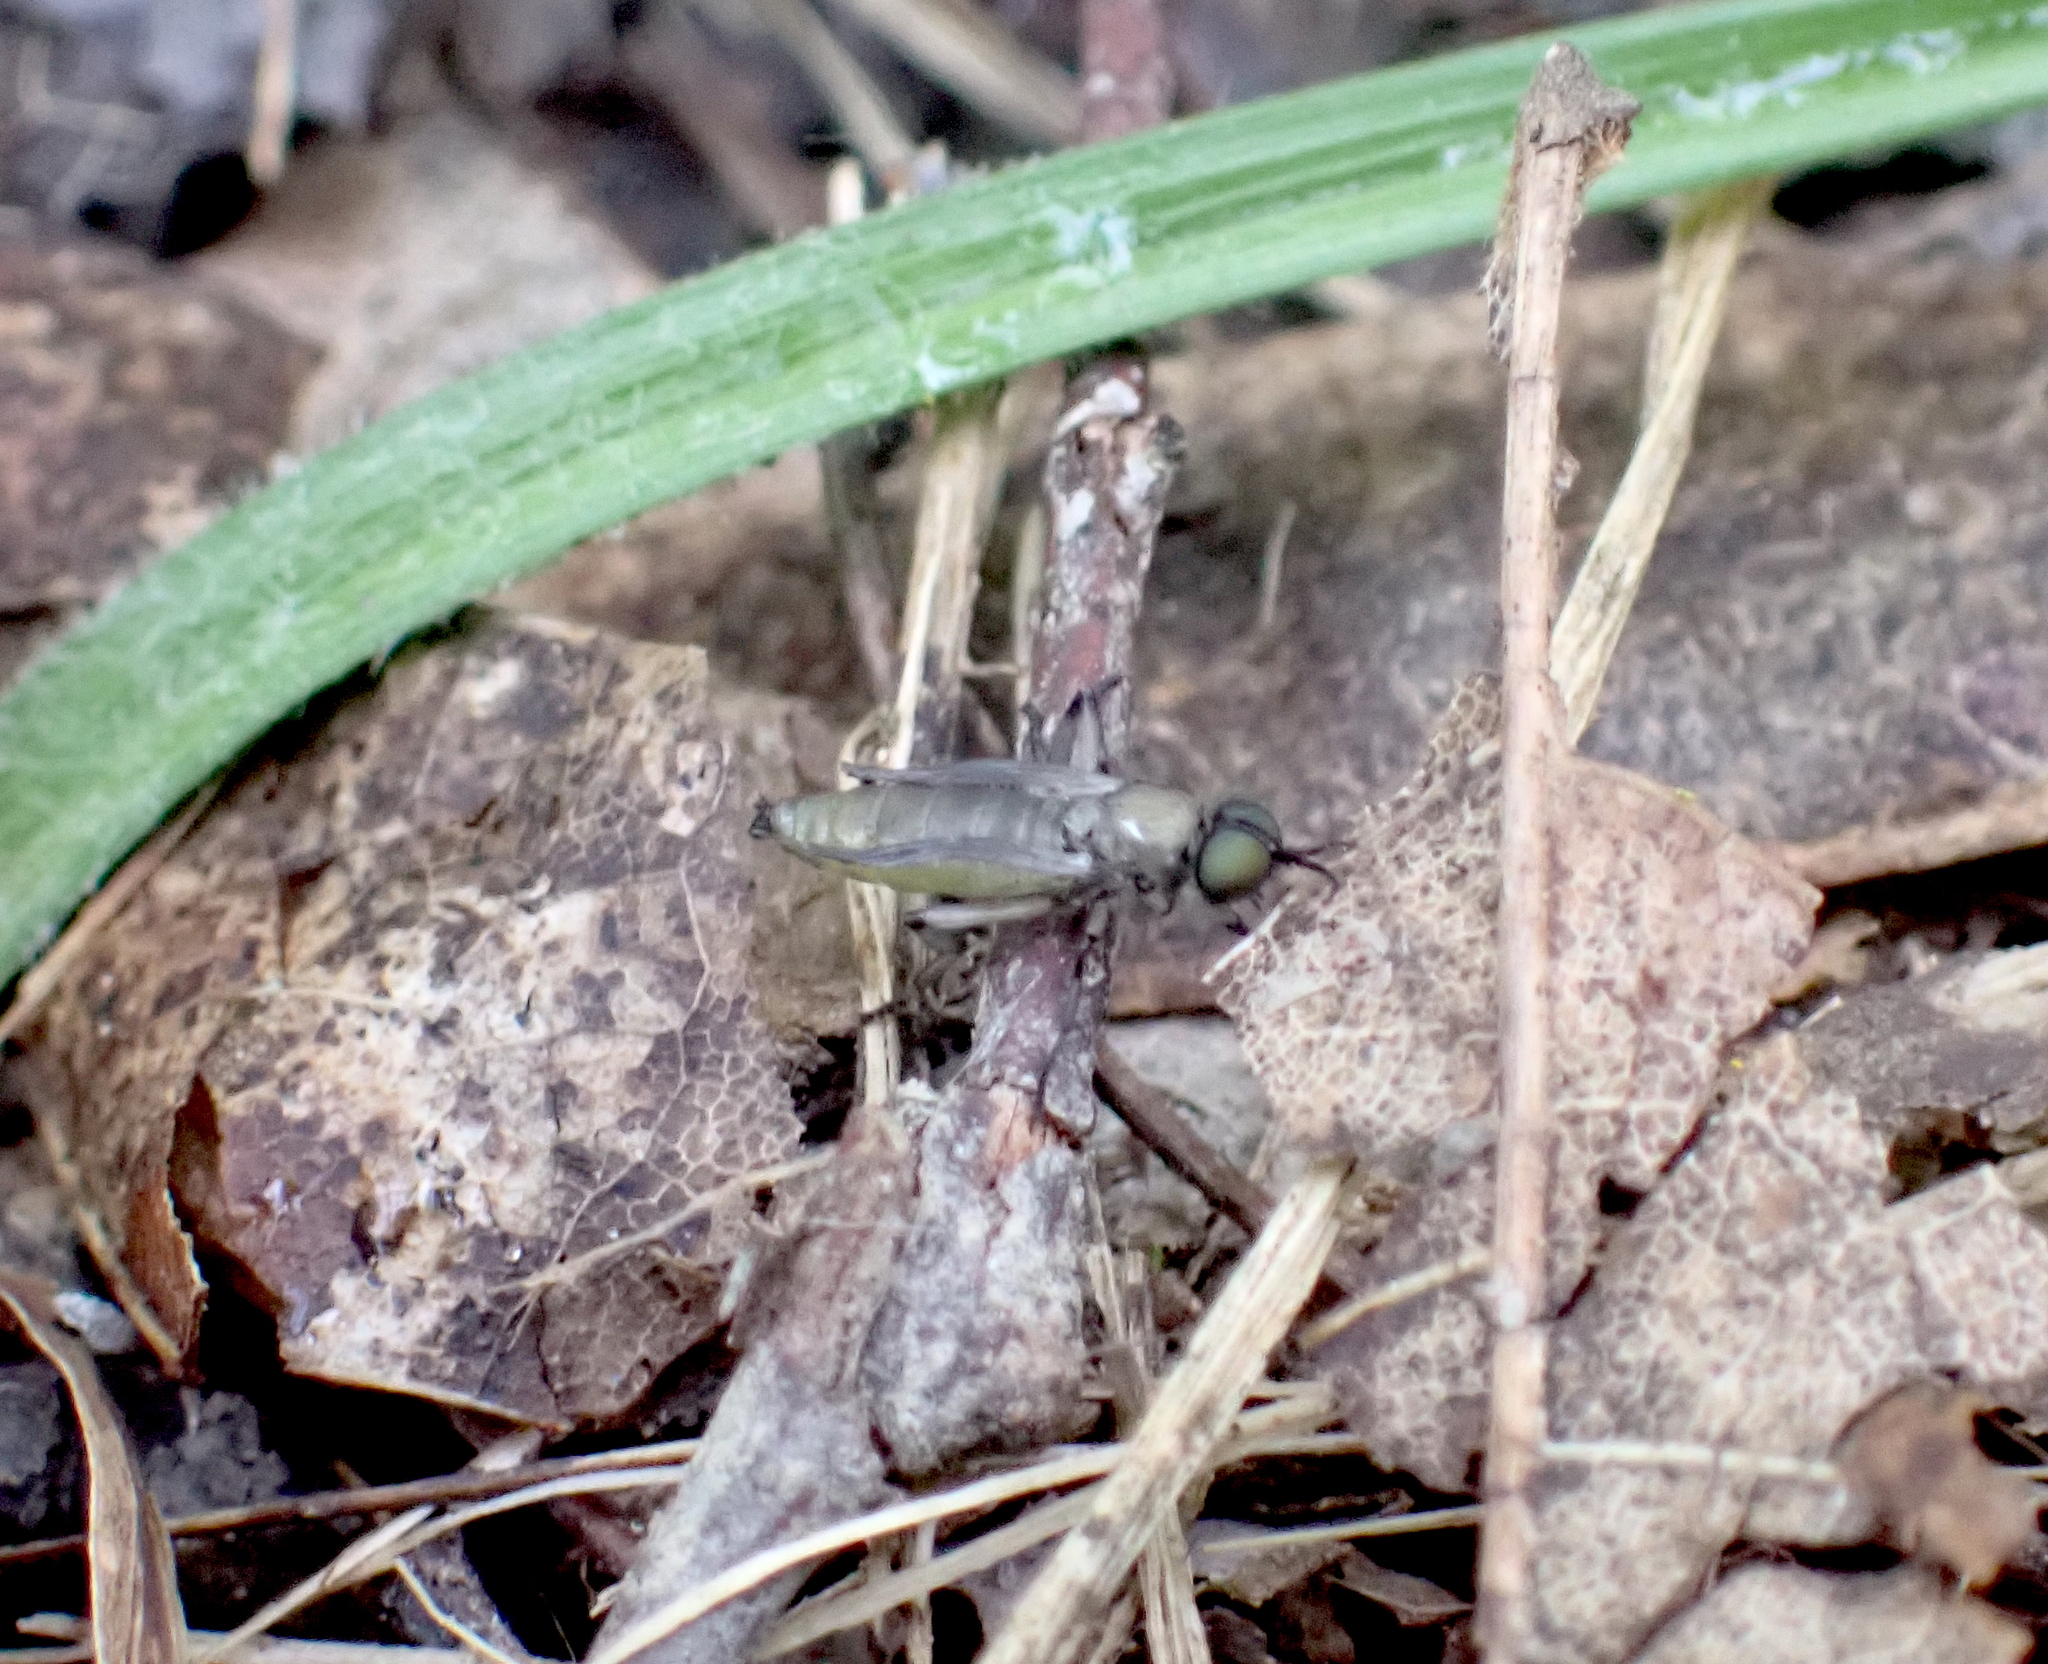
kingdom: Animalia
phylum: Arthropoda
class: Insecta
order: Diptera
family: Stratiomyidae
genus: Actina
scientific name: Actina chalybea
